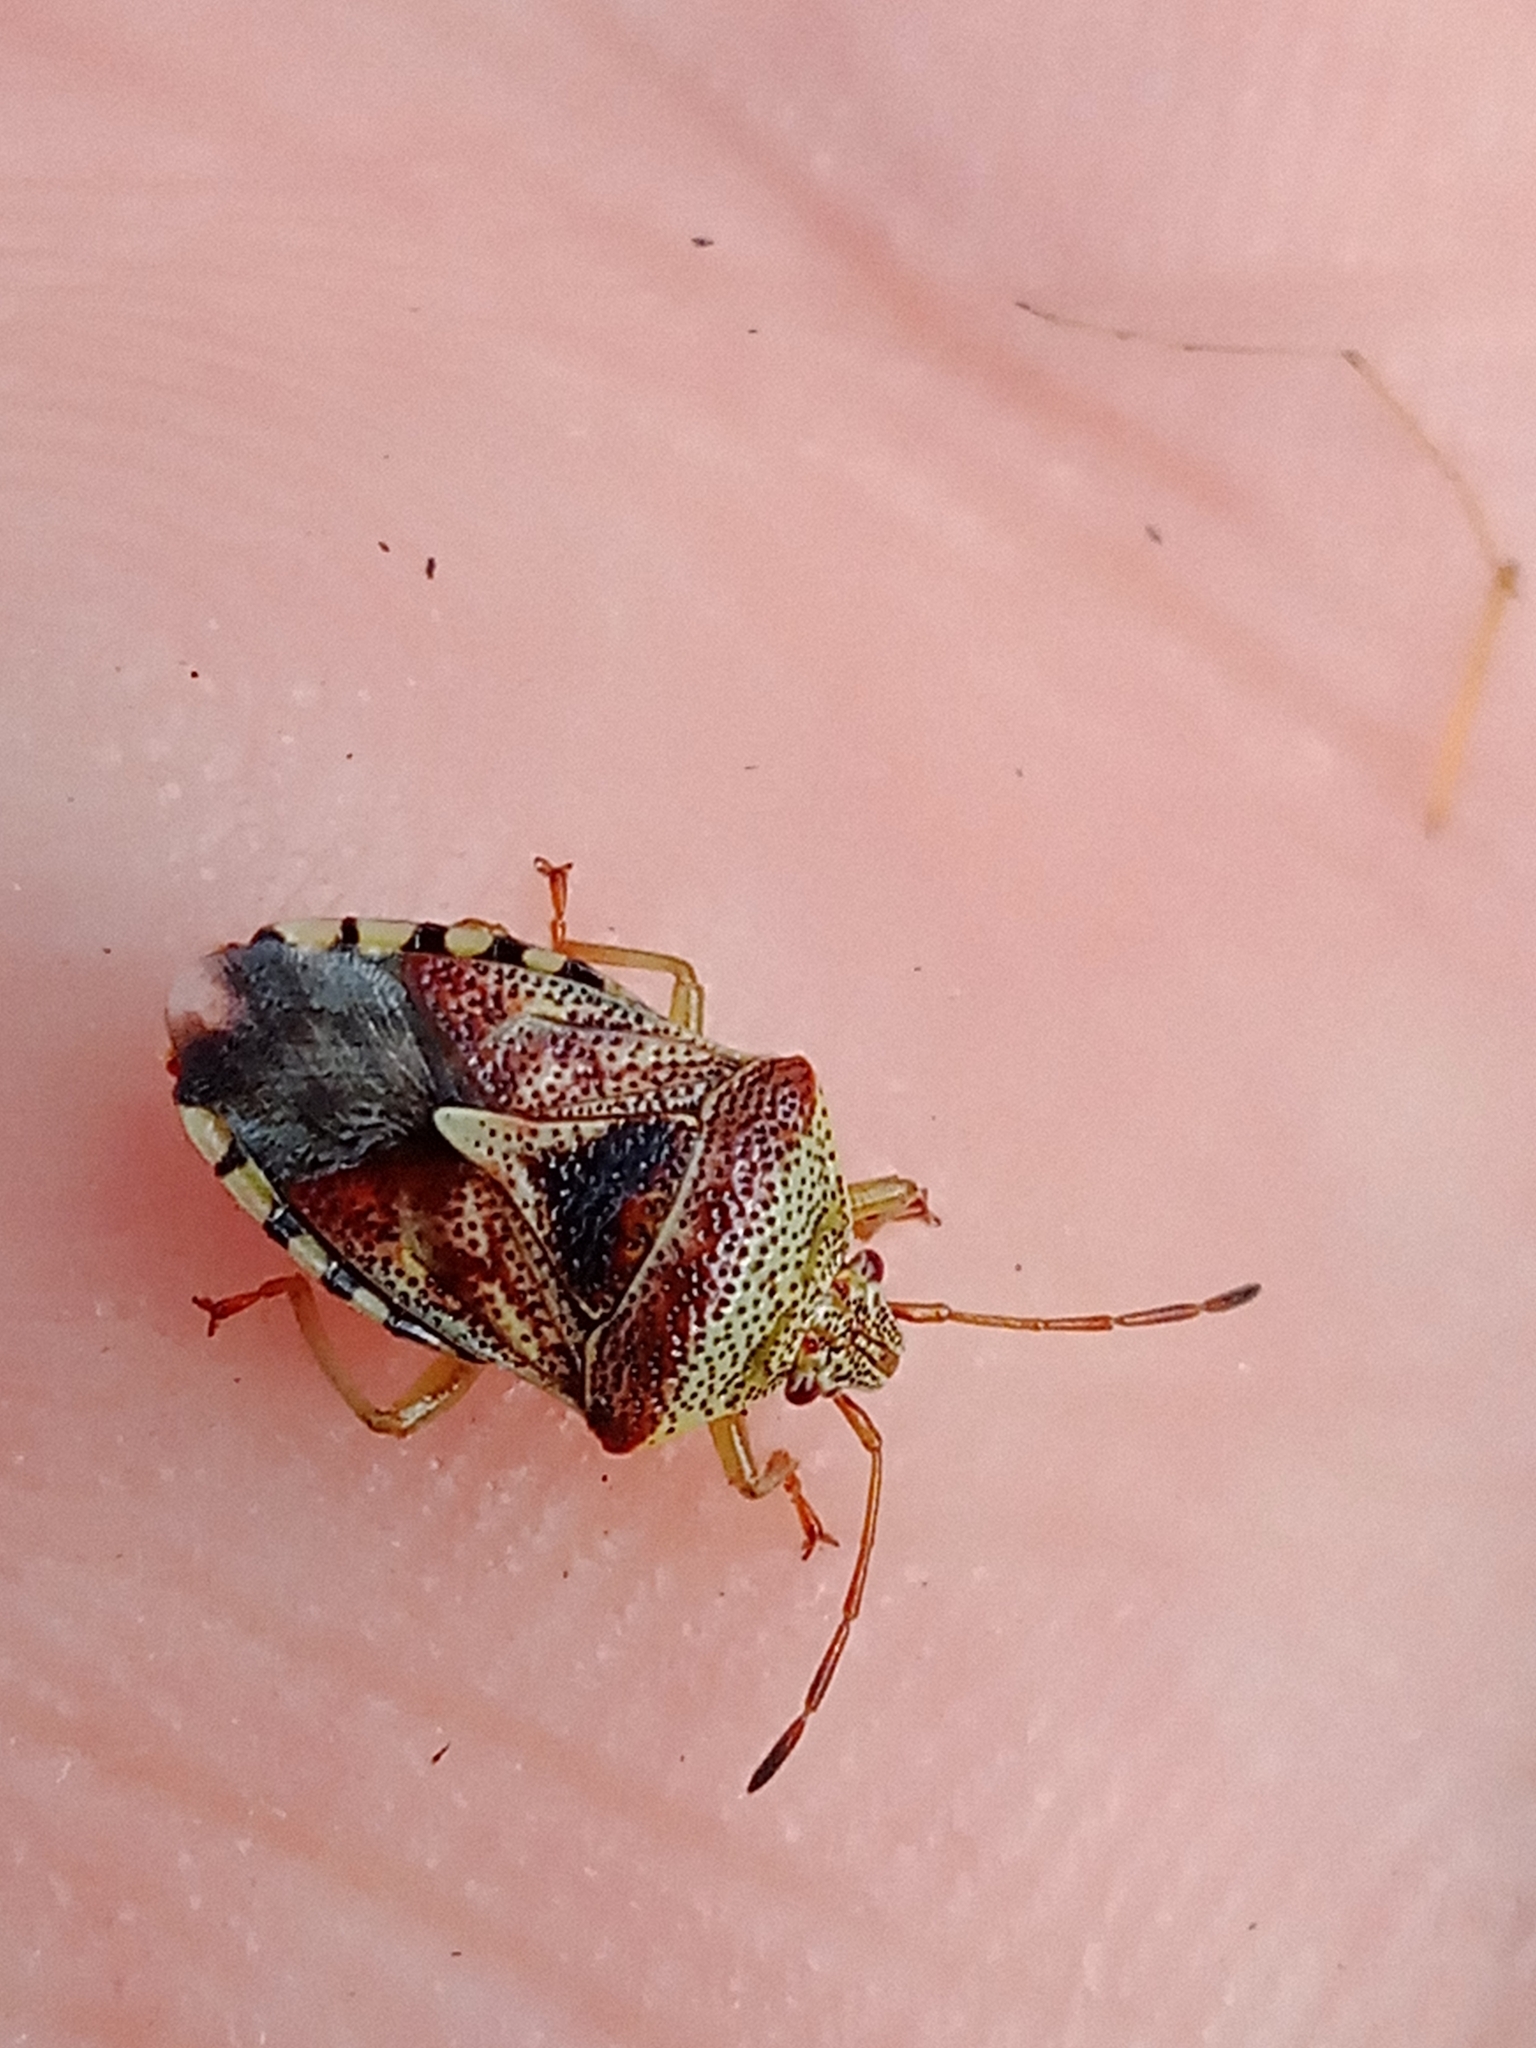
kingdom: Animalia
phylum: Arthropoda
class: Insecta
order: Hemiptera
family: Acanthosomatidae
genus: Elasmucha
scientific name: Elasmucha grisea
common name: Parent bug
